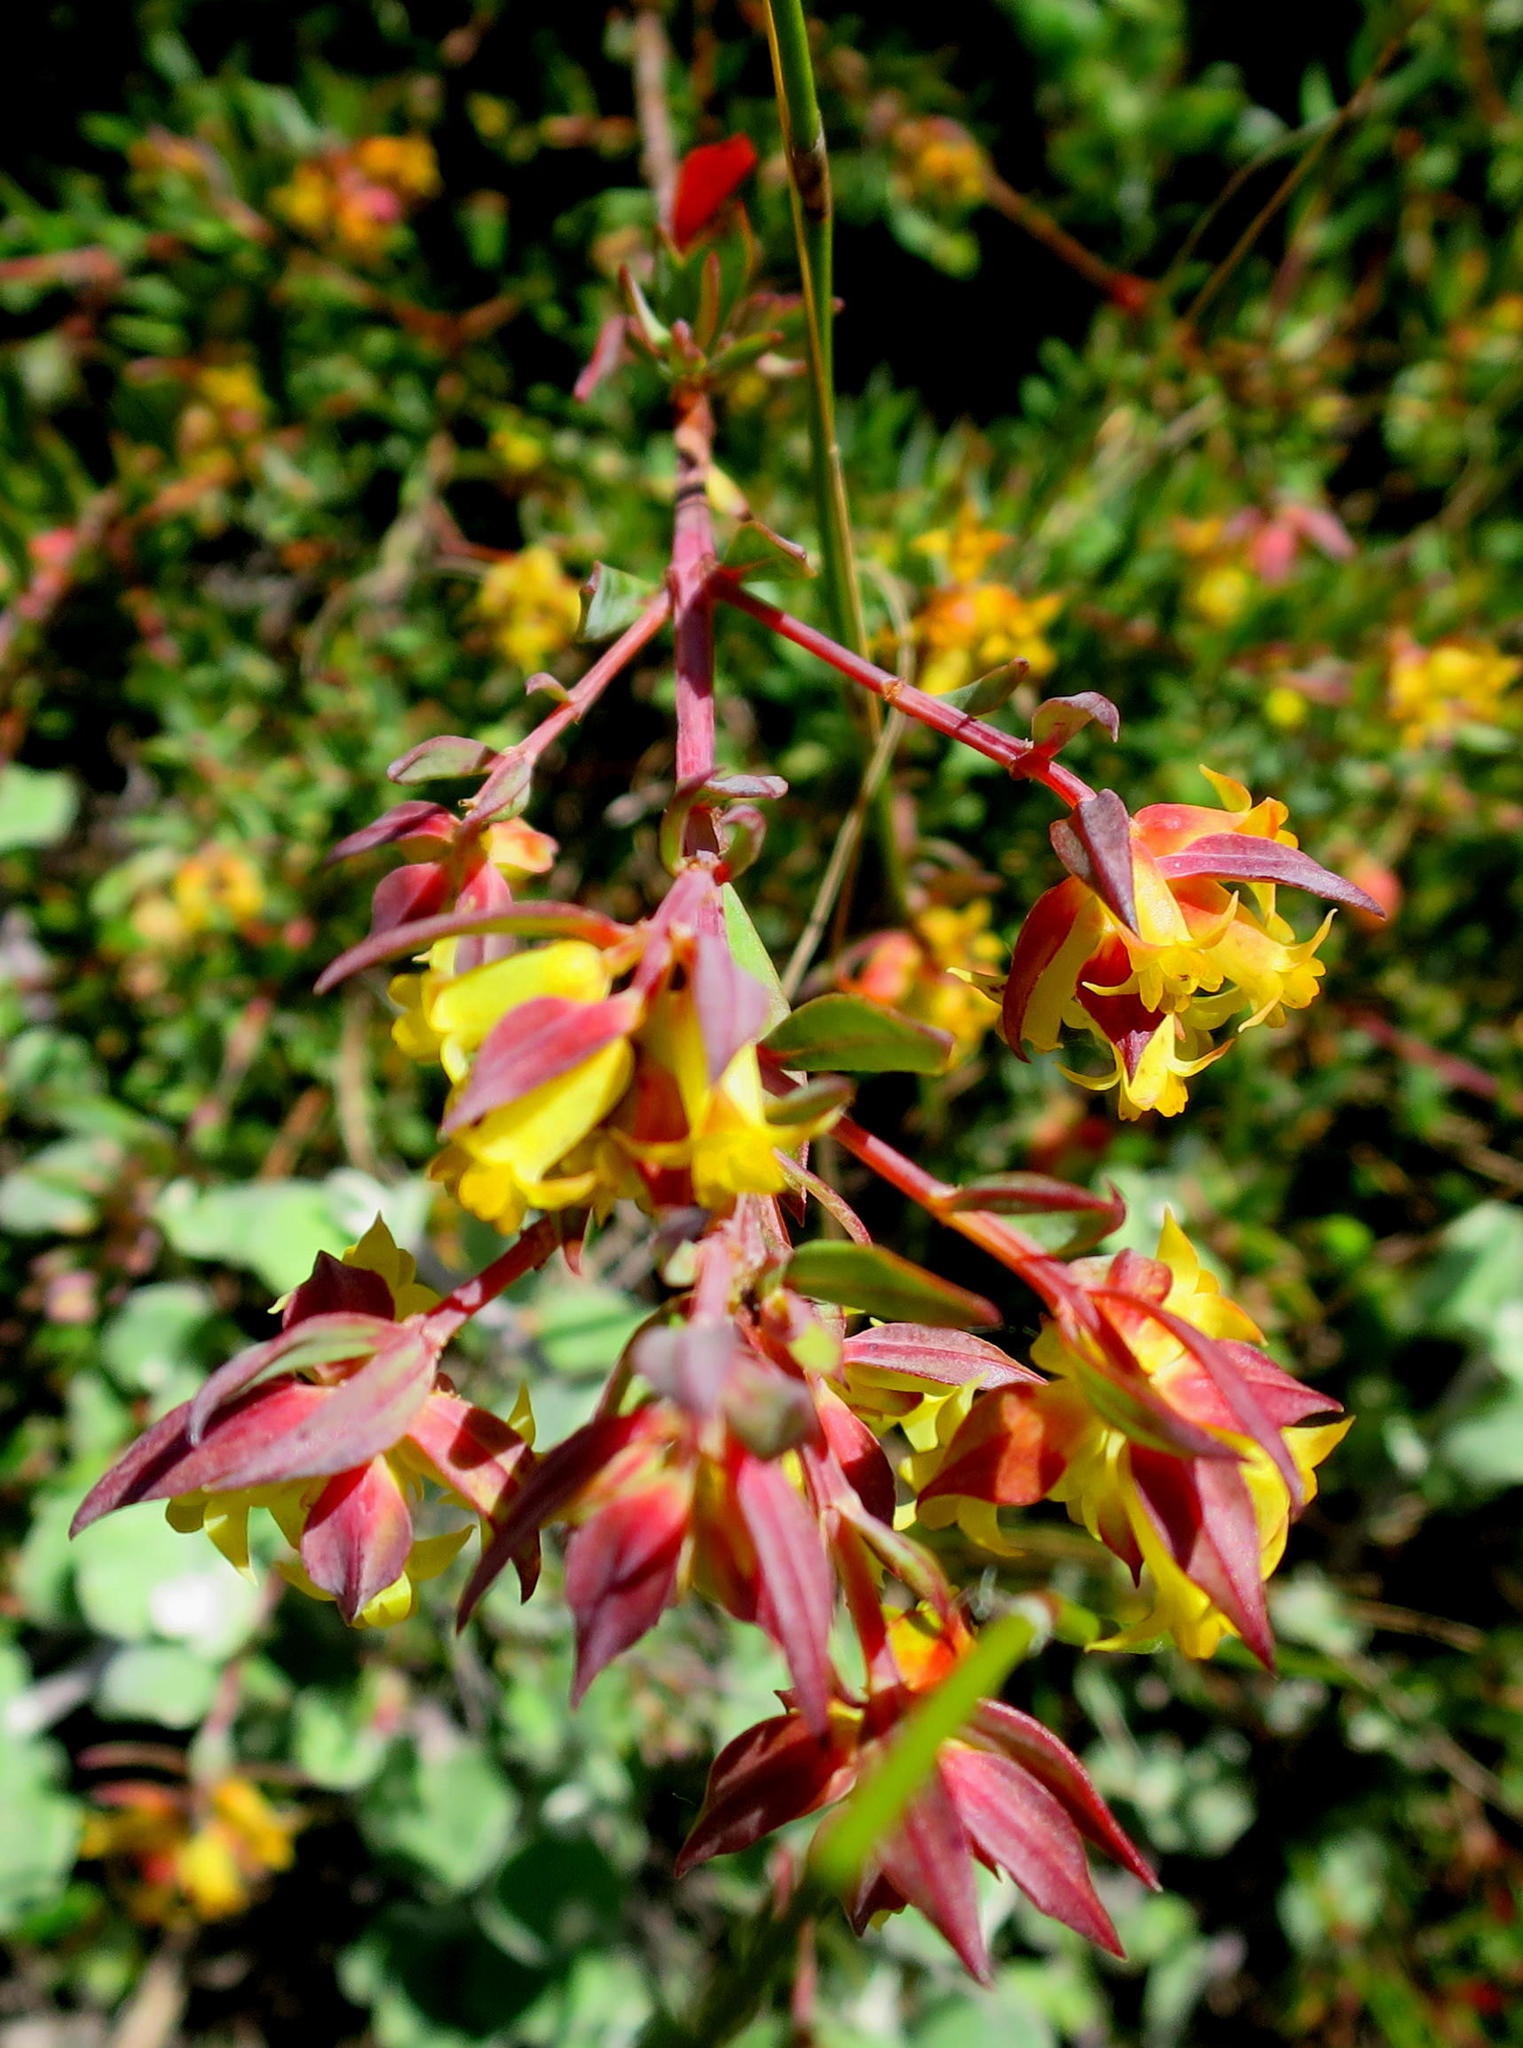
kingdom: Plantae
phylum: Tracheophyta
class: Magnoliopsida
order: Myrtales
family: Penaeaceae
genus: Penaea
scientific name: Penaea acutifolia
